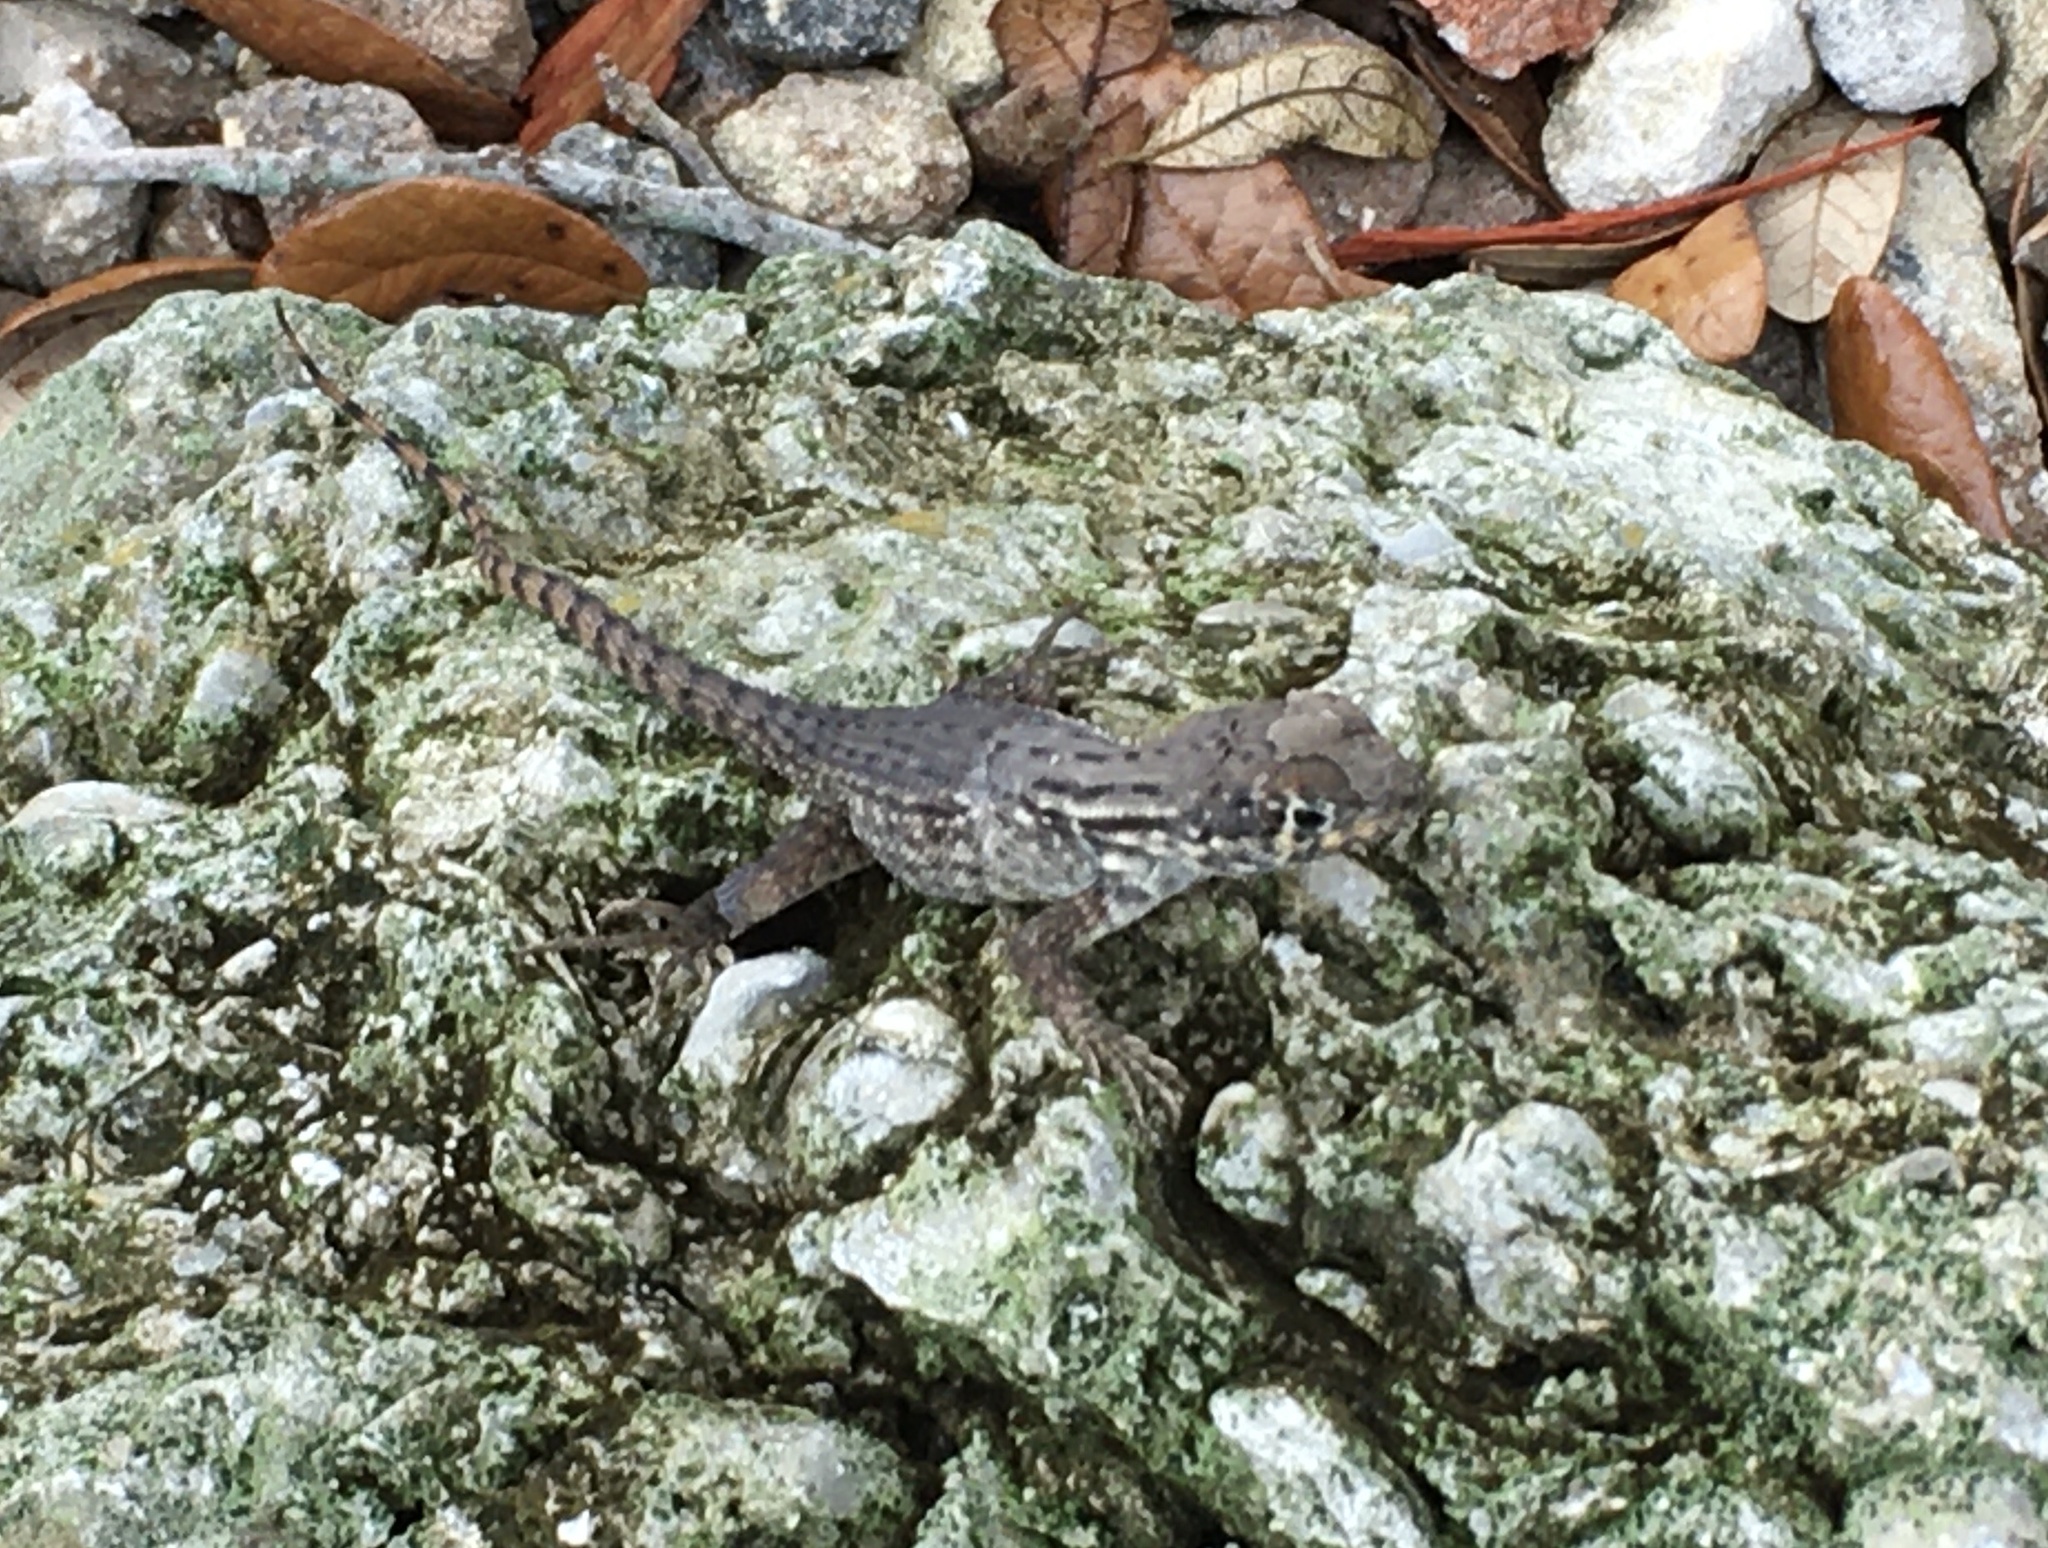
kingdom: Animalia
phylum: Chordata
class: Squamata
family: Leiocephalidae
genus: Leiocephalus
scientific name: Leiocephalus carinatus
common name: Northern curly-tailed lizard
